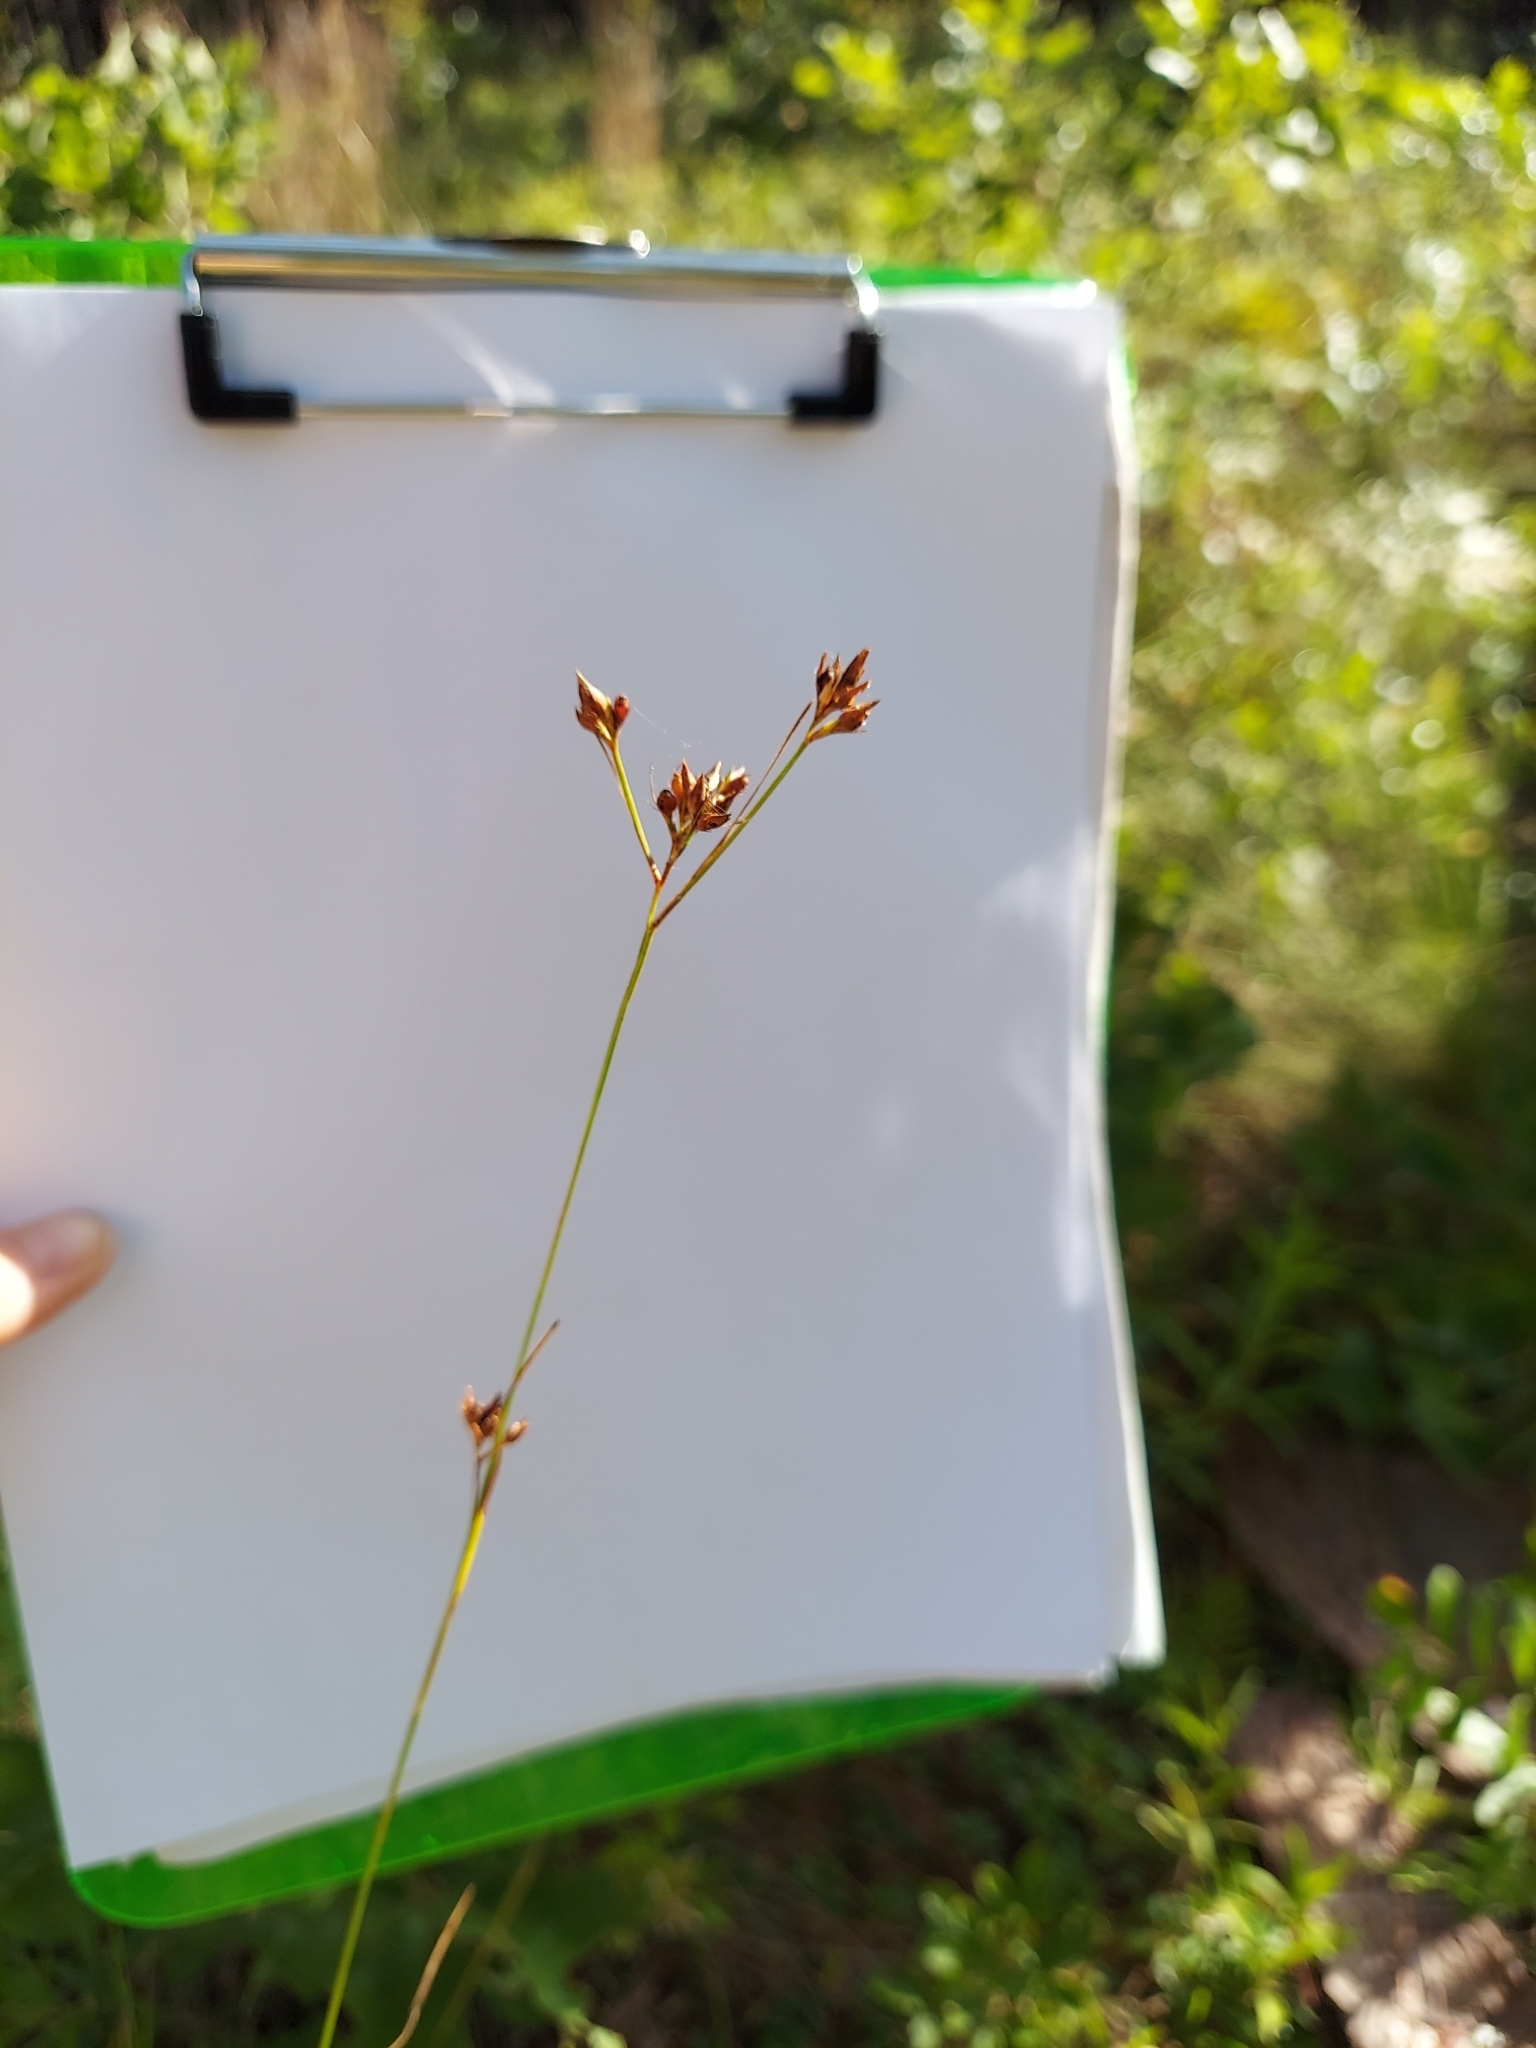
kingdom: Plantae
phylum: Tracheophyta
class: Liliopsida
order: Poales
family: Cyperaceae
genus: Rhynchospora
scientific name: Rhynchospora grayi
